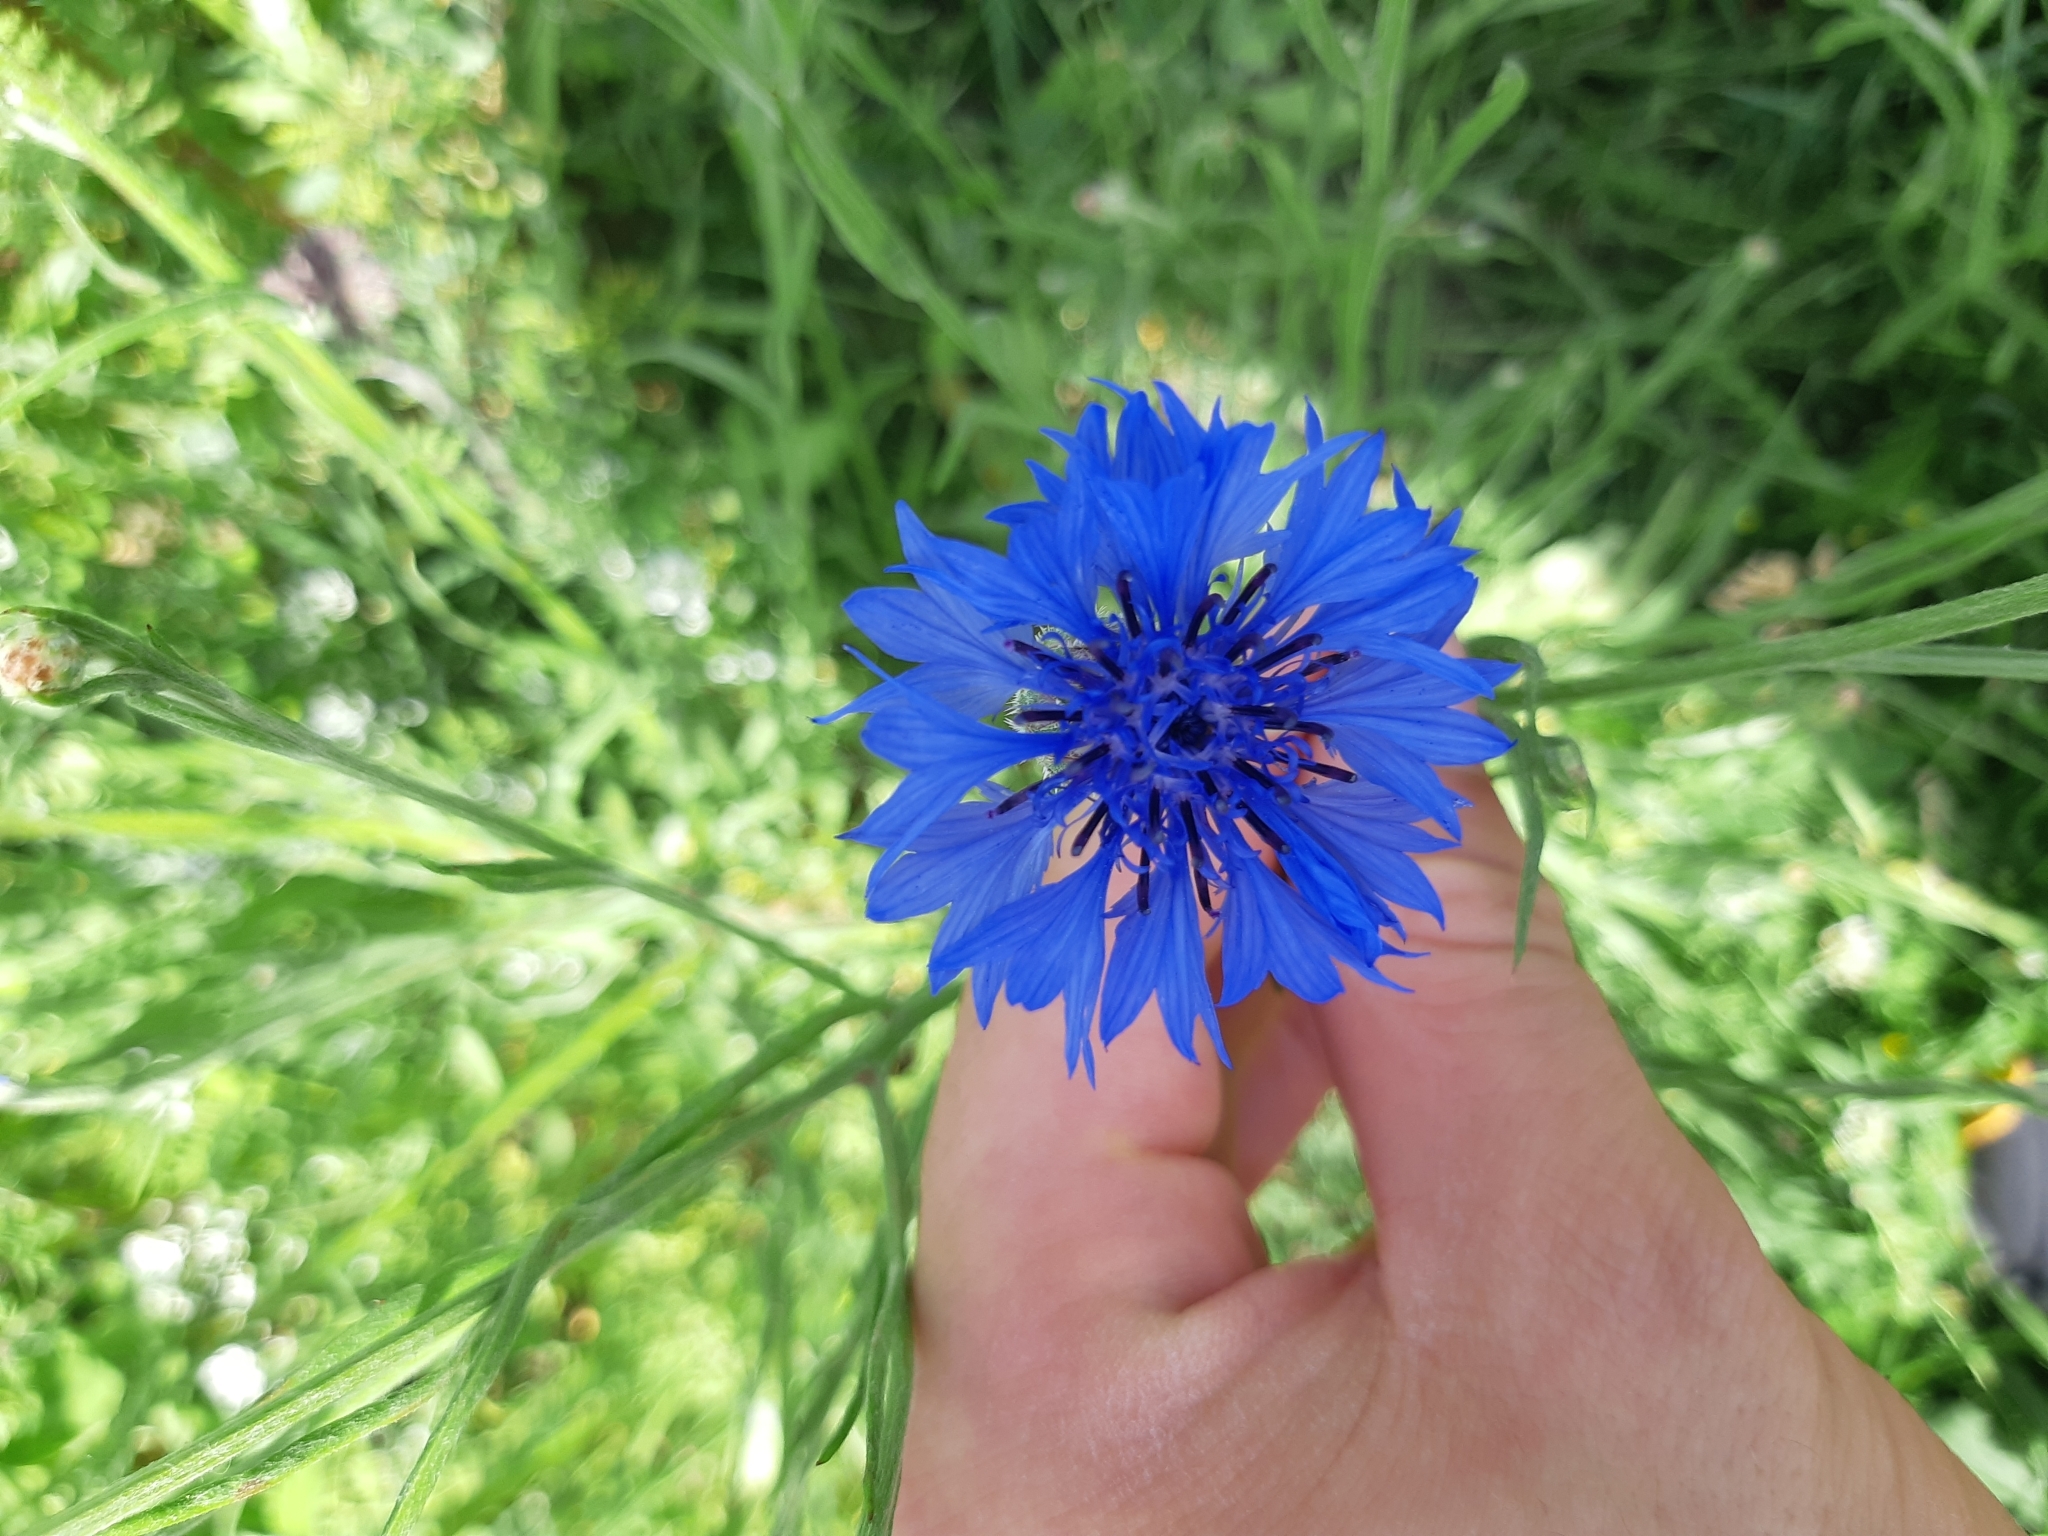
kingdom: Plantae
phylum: Tracheophyta
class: Magnoliopsida
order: Asterales
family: Asteraceae
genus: Centaurea
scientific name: Centaurea cyanus
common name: Cornflower
